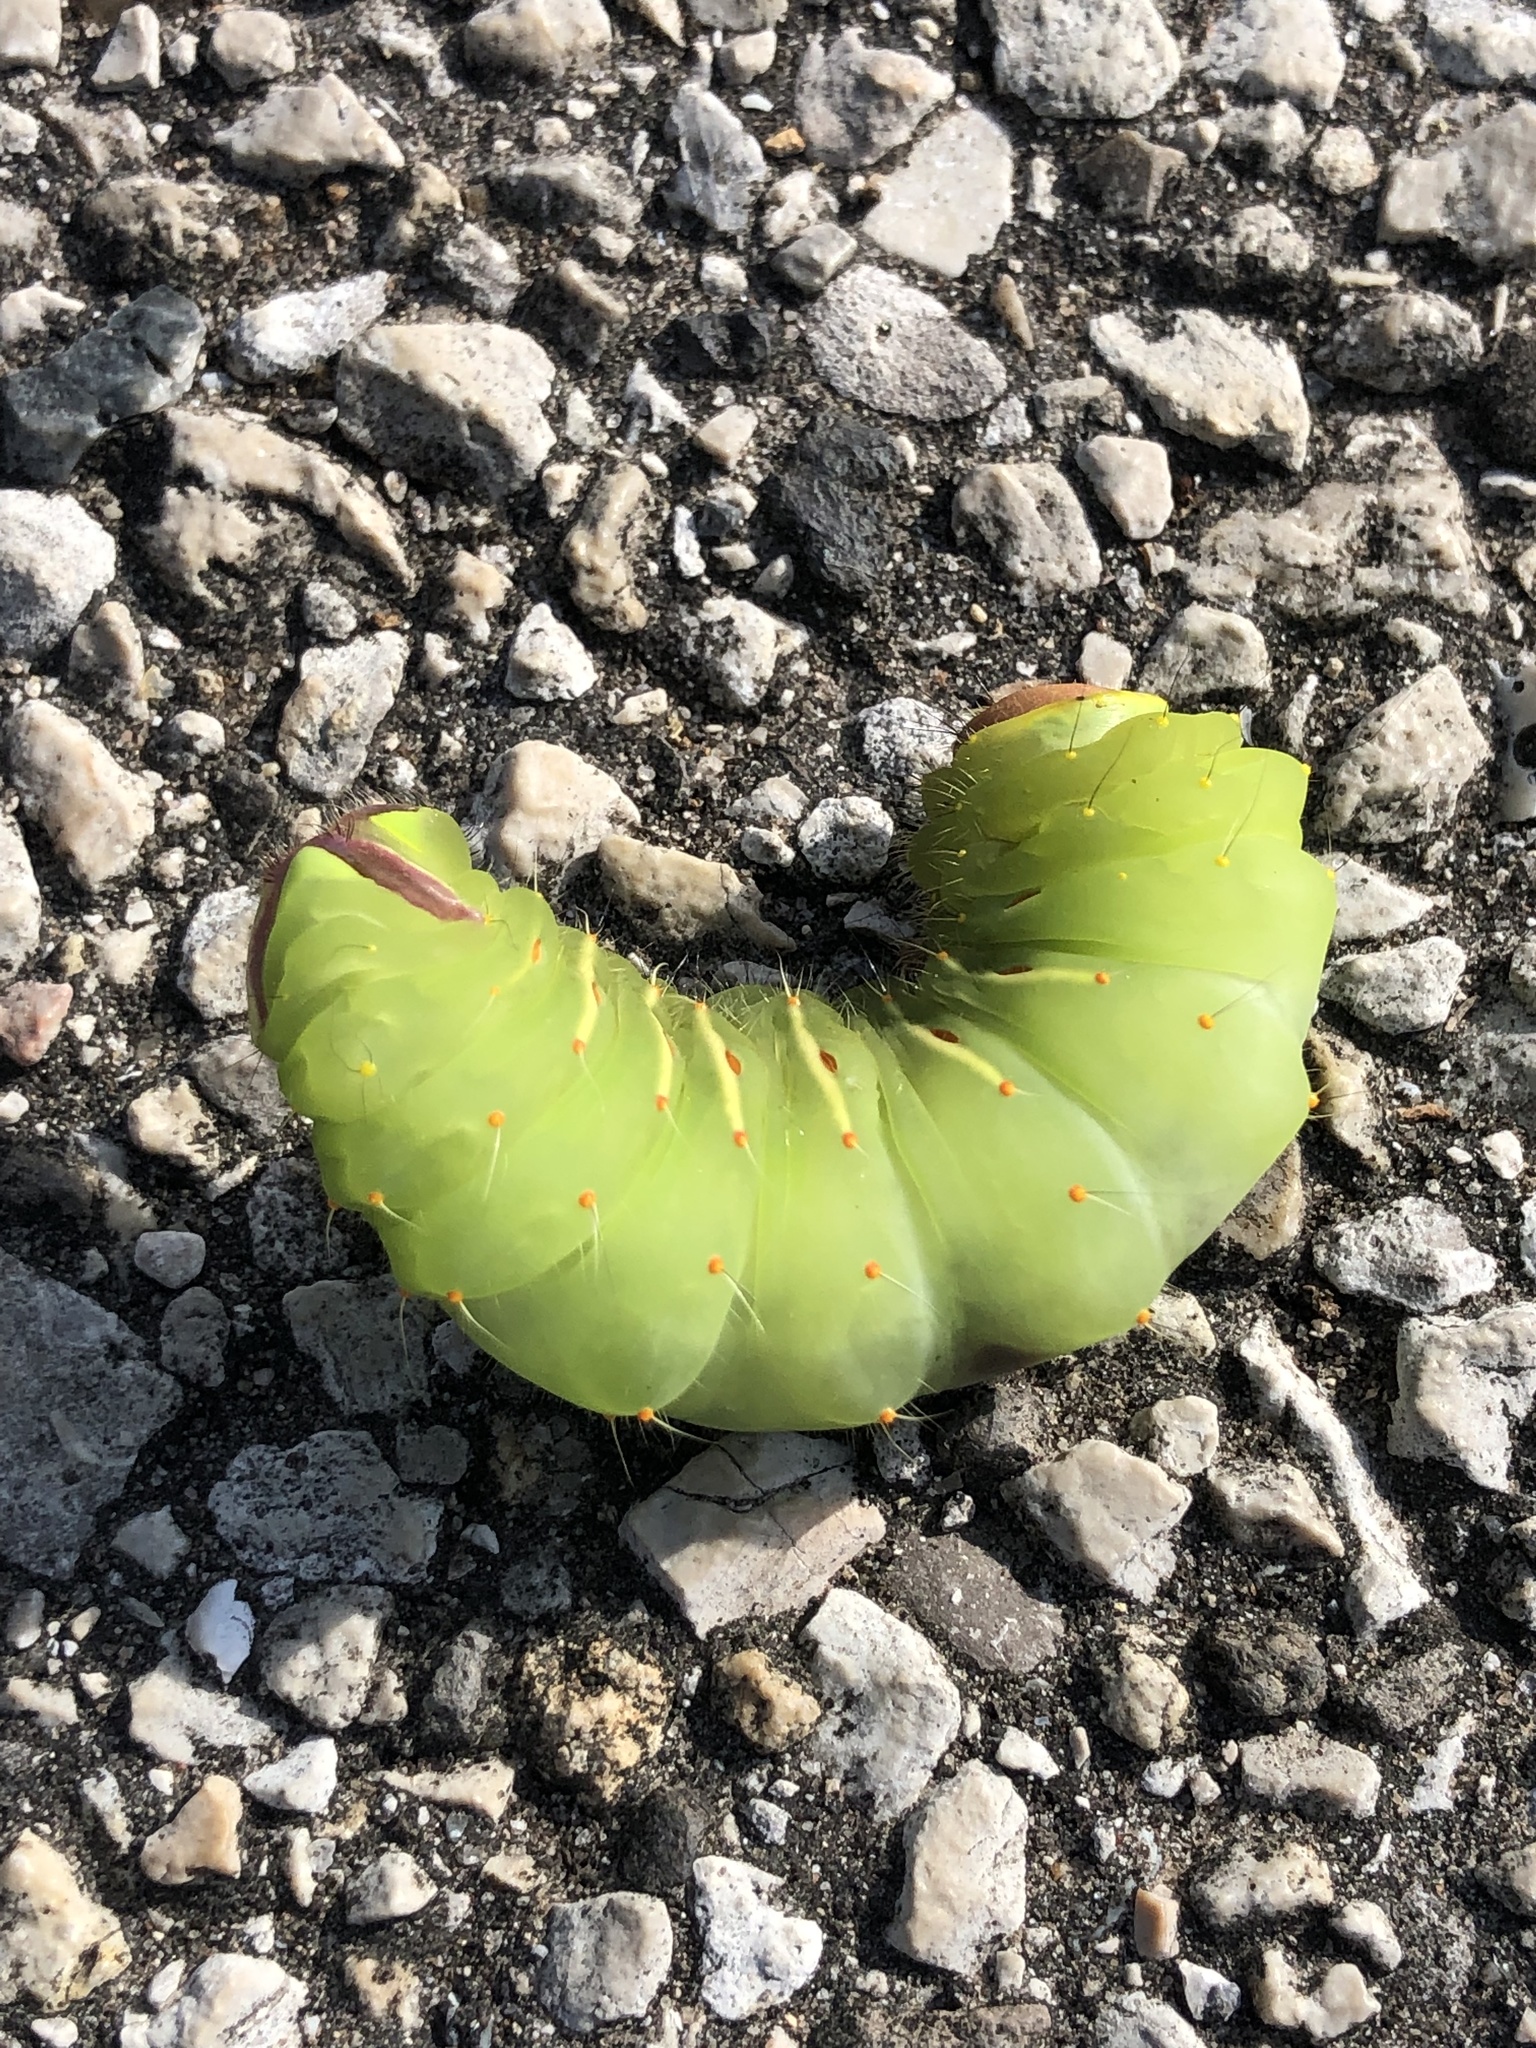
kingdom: Animalia
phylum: Arthropoda
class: Insecta
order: Lepidoptera
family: Saturniidae
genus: Antheraea
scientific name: Antheraea polyphemus
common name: Polyphemus moth
